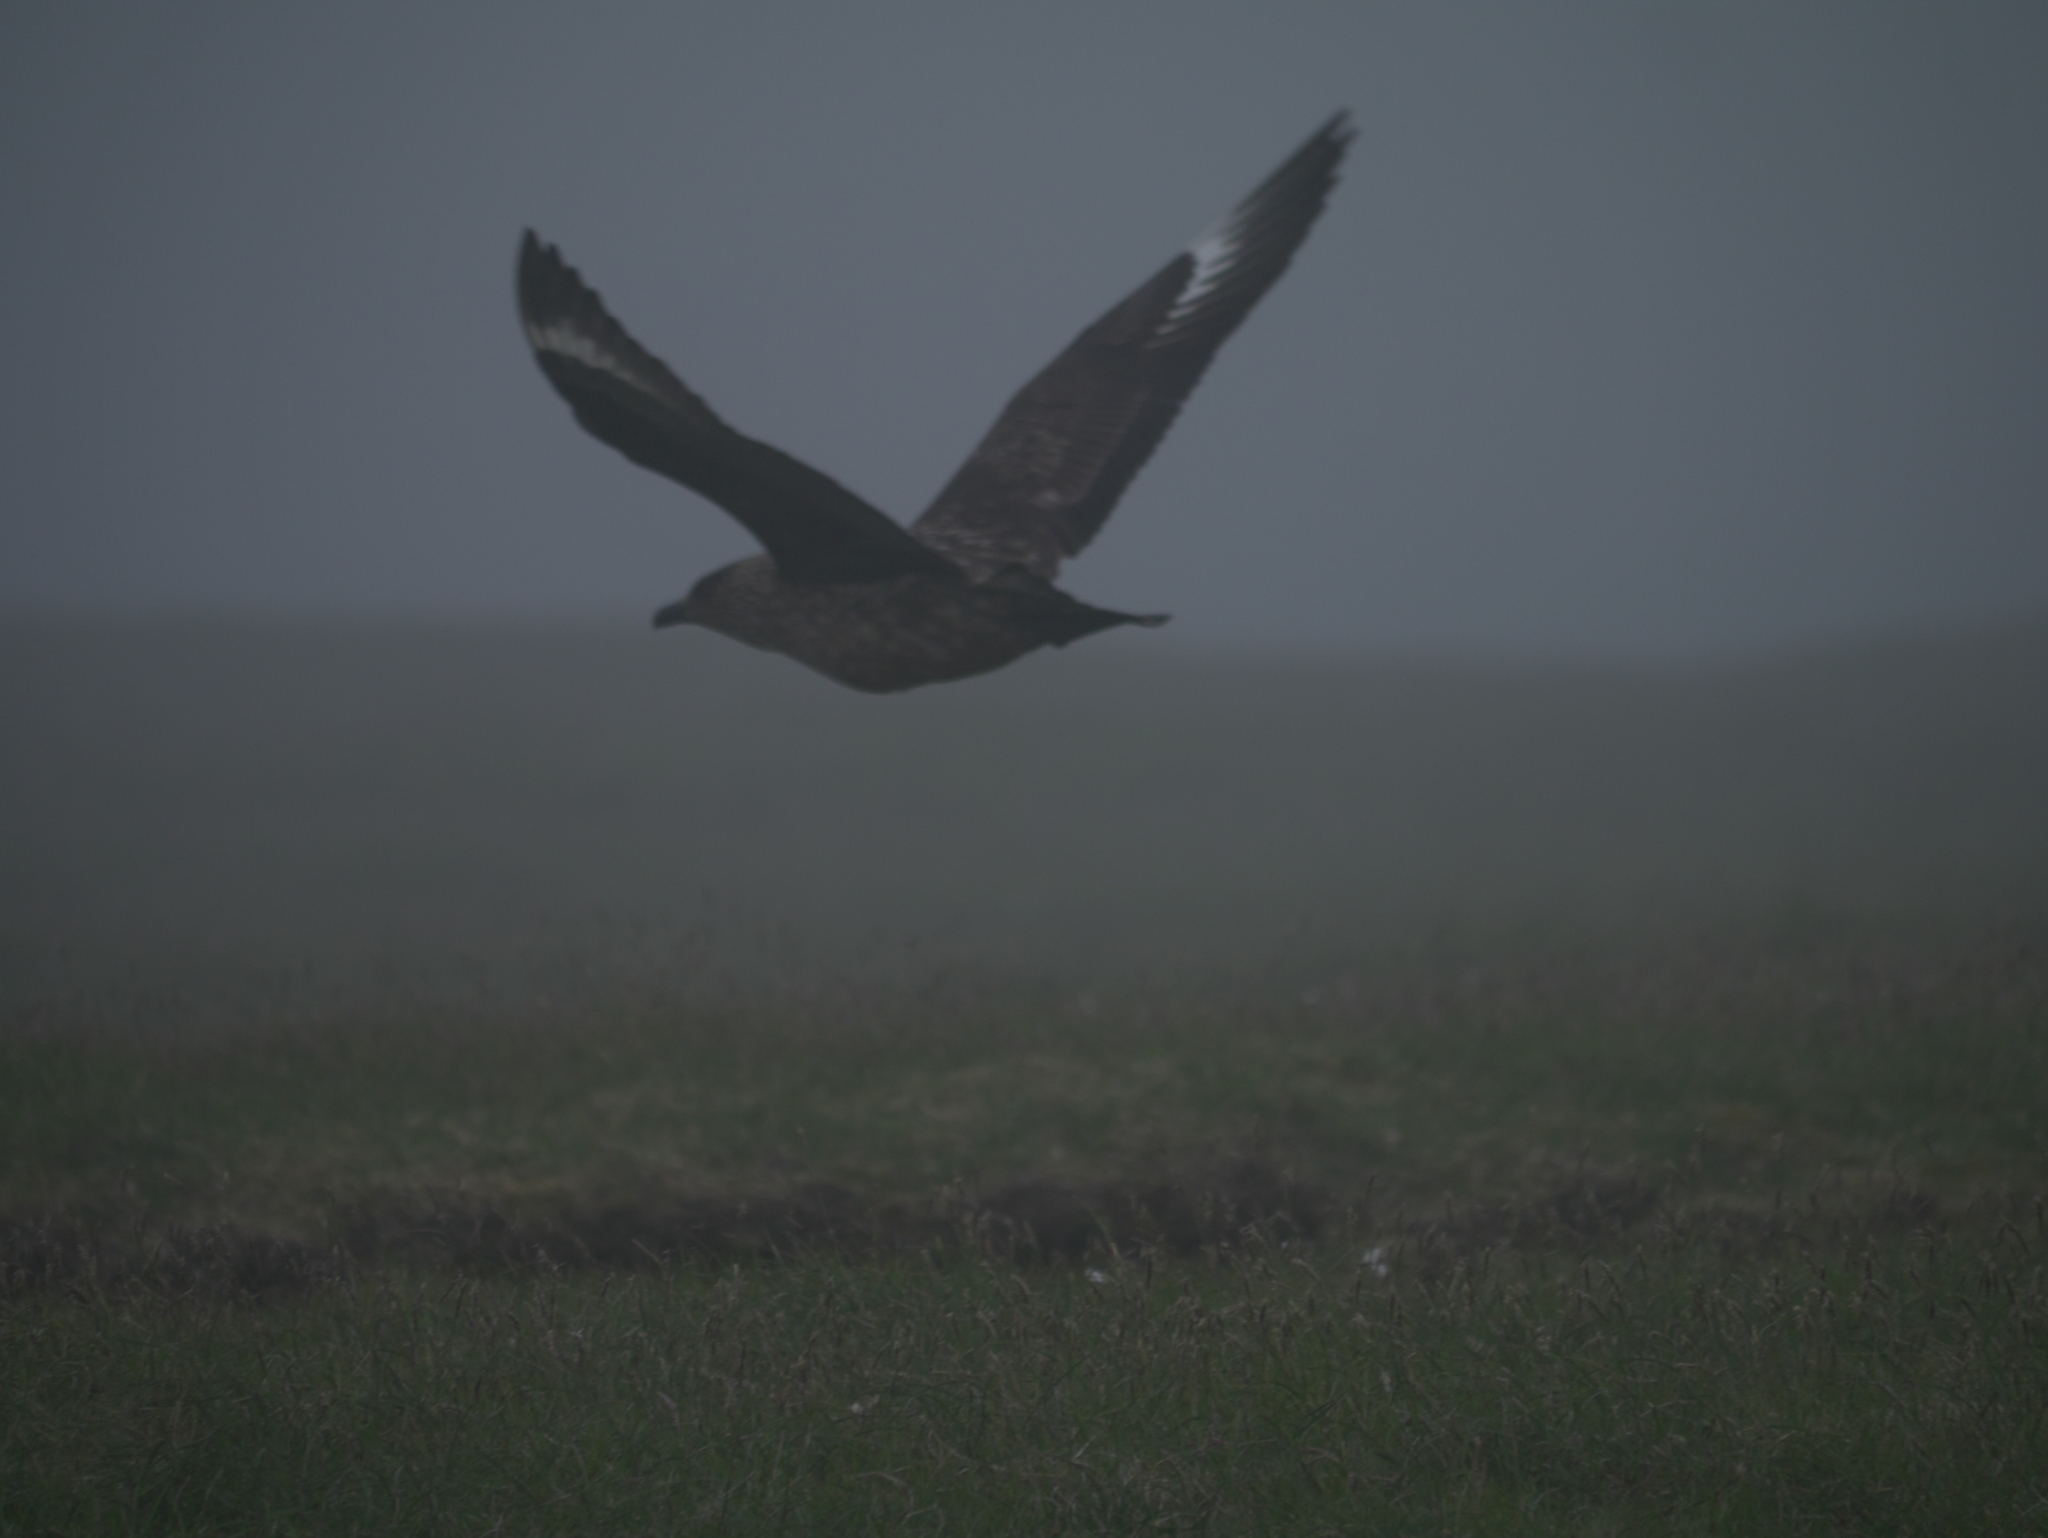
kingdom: Animalia
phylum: Chordata
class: Aves
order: Charadriiformes
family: Stercorariidae
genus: Stercorarius
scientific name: Stercorarius skua
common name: Great skua
